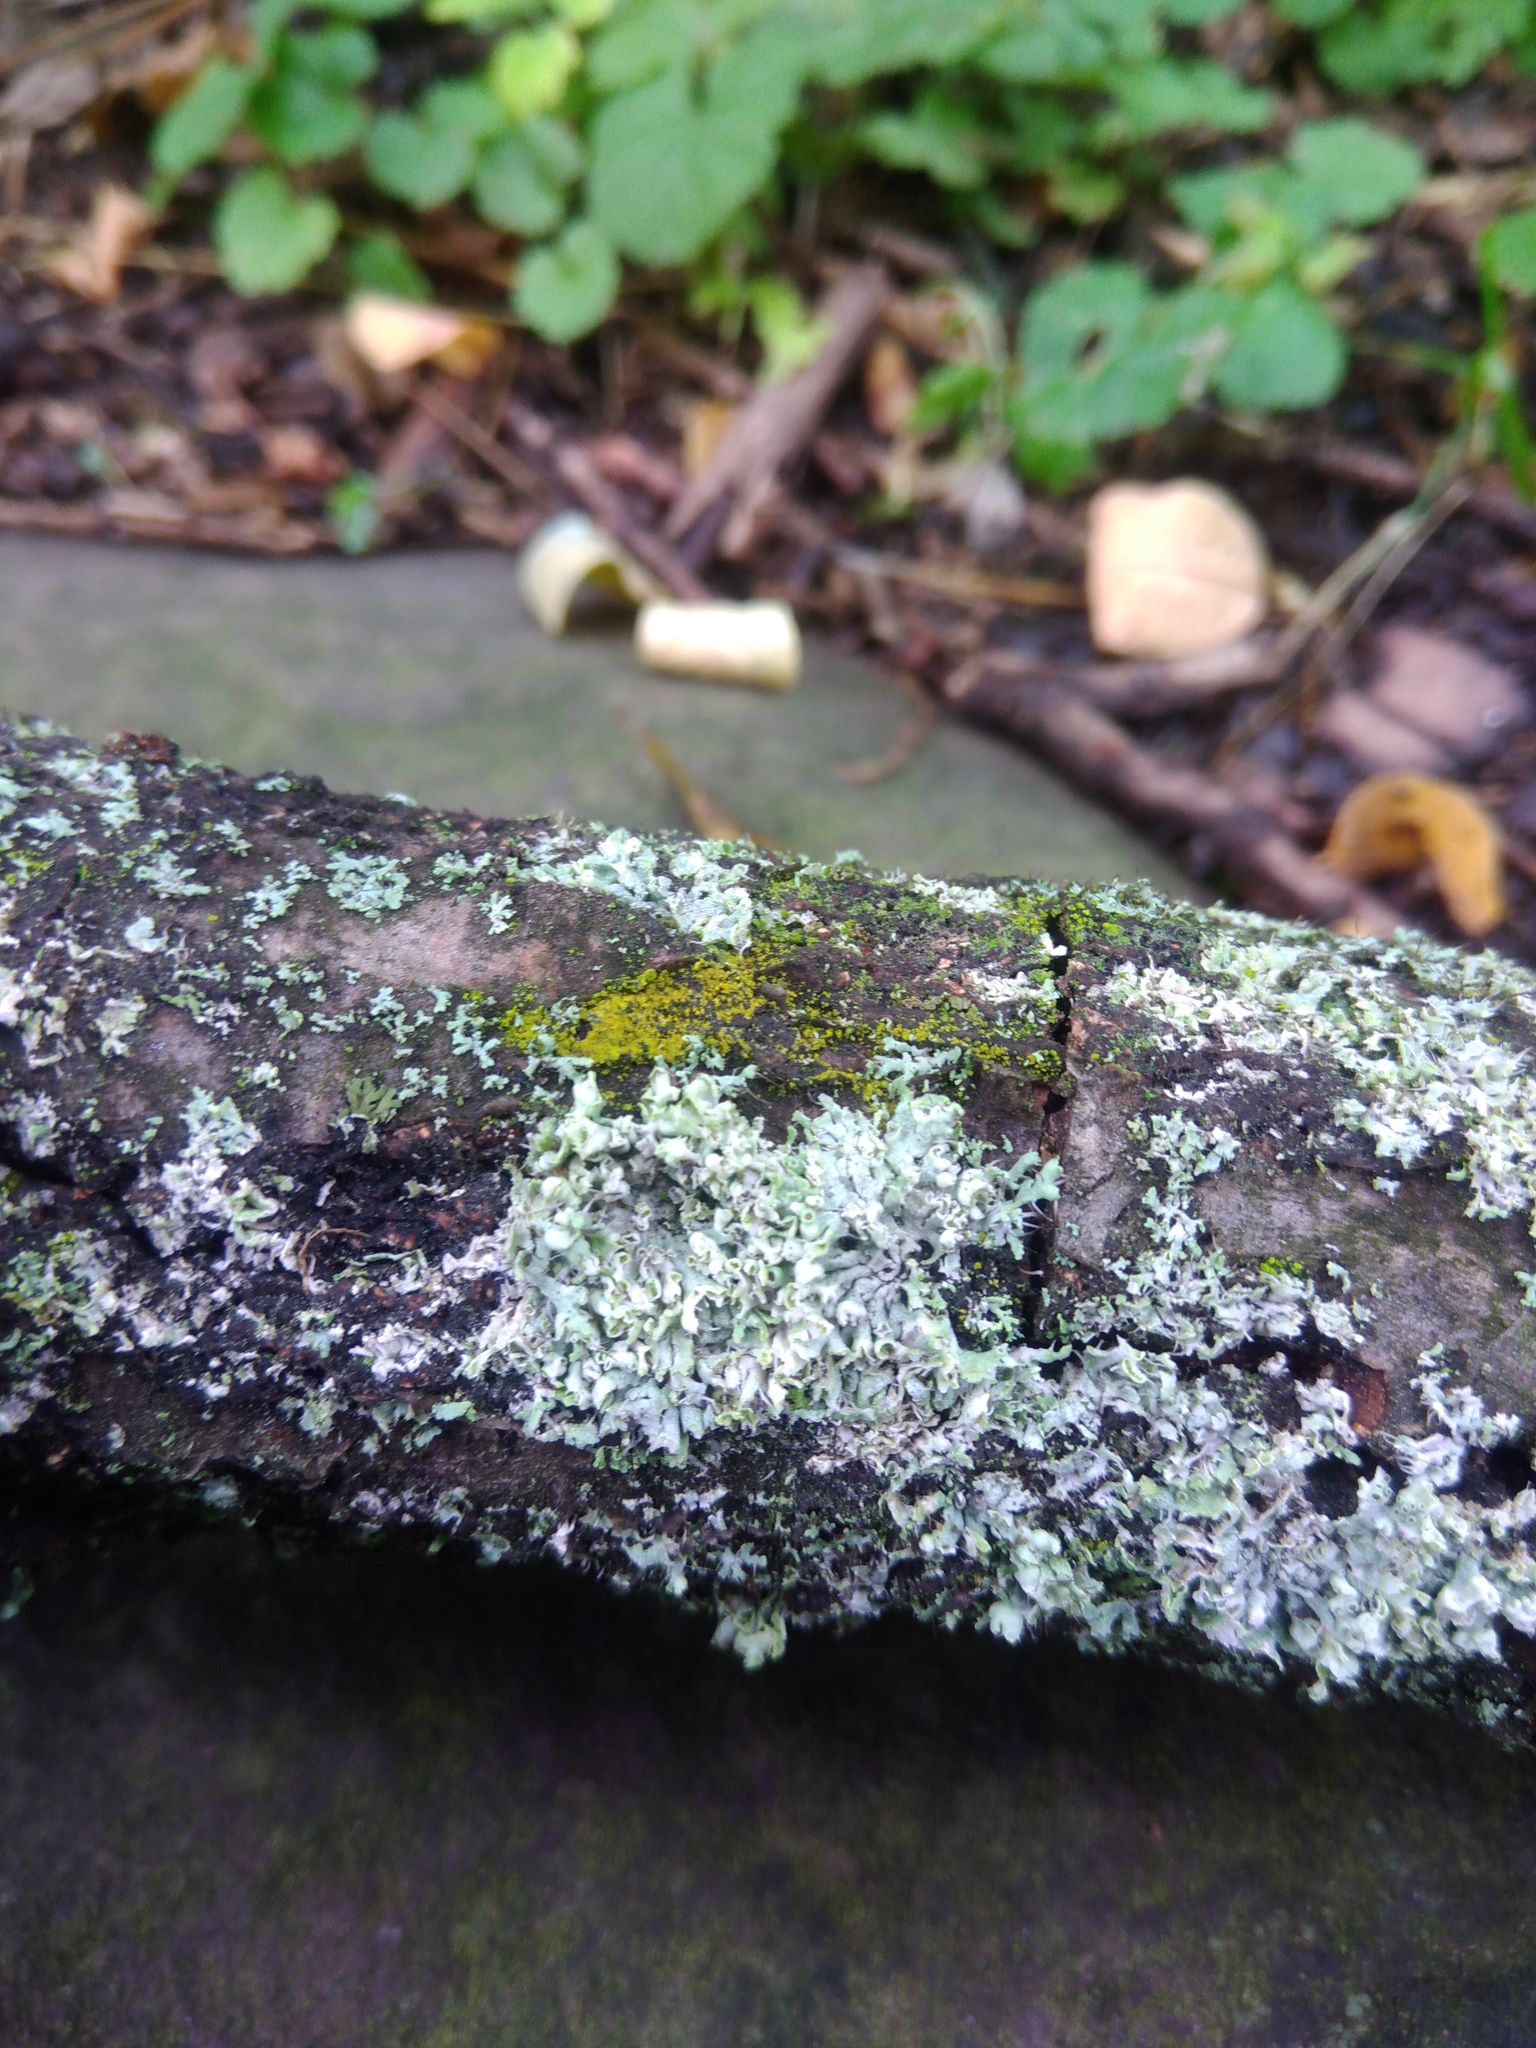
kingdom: Fungi
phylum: Ascomycota
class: Lecanoromycetes
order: Caliciales
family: Physciaceae
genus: Physcia
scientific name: Physcia adscendens
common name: Hooded rosette lichen
